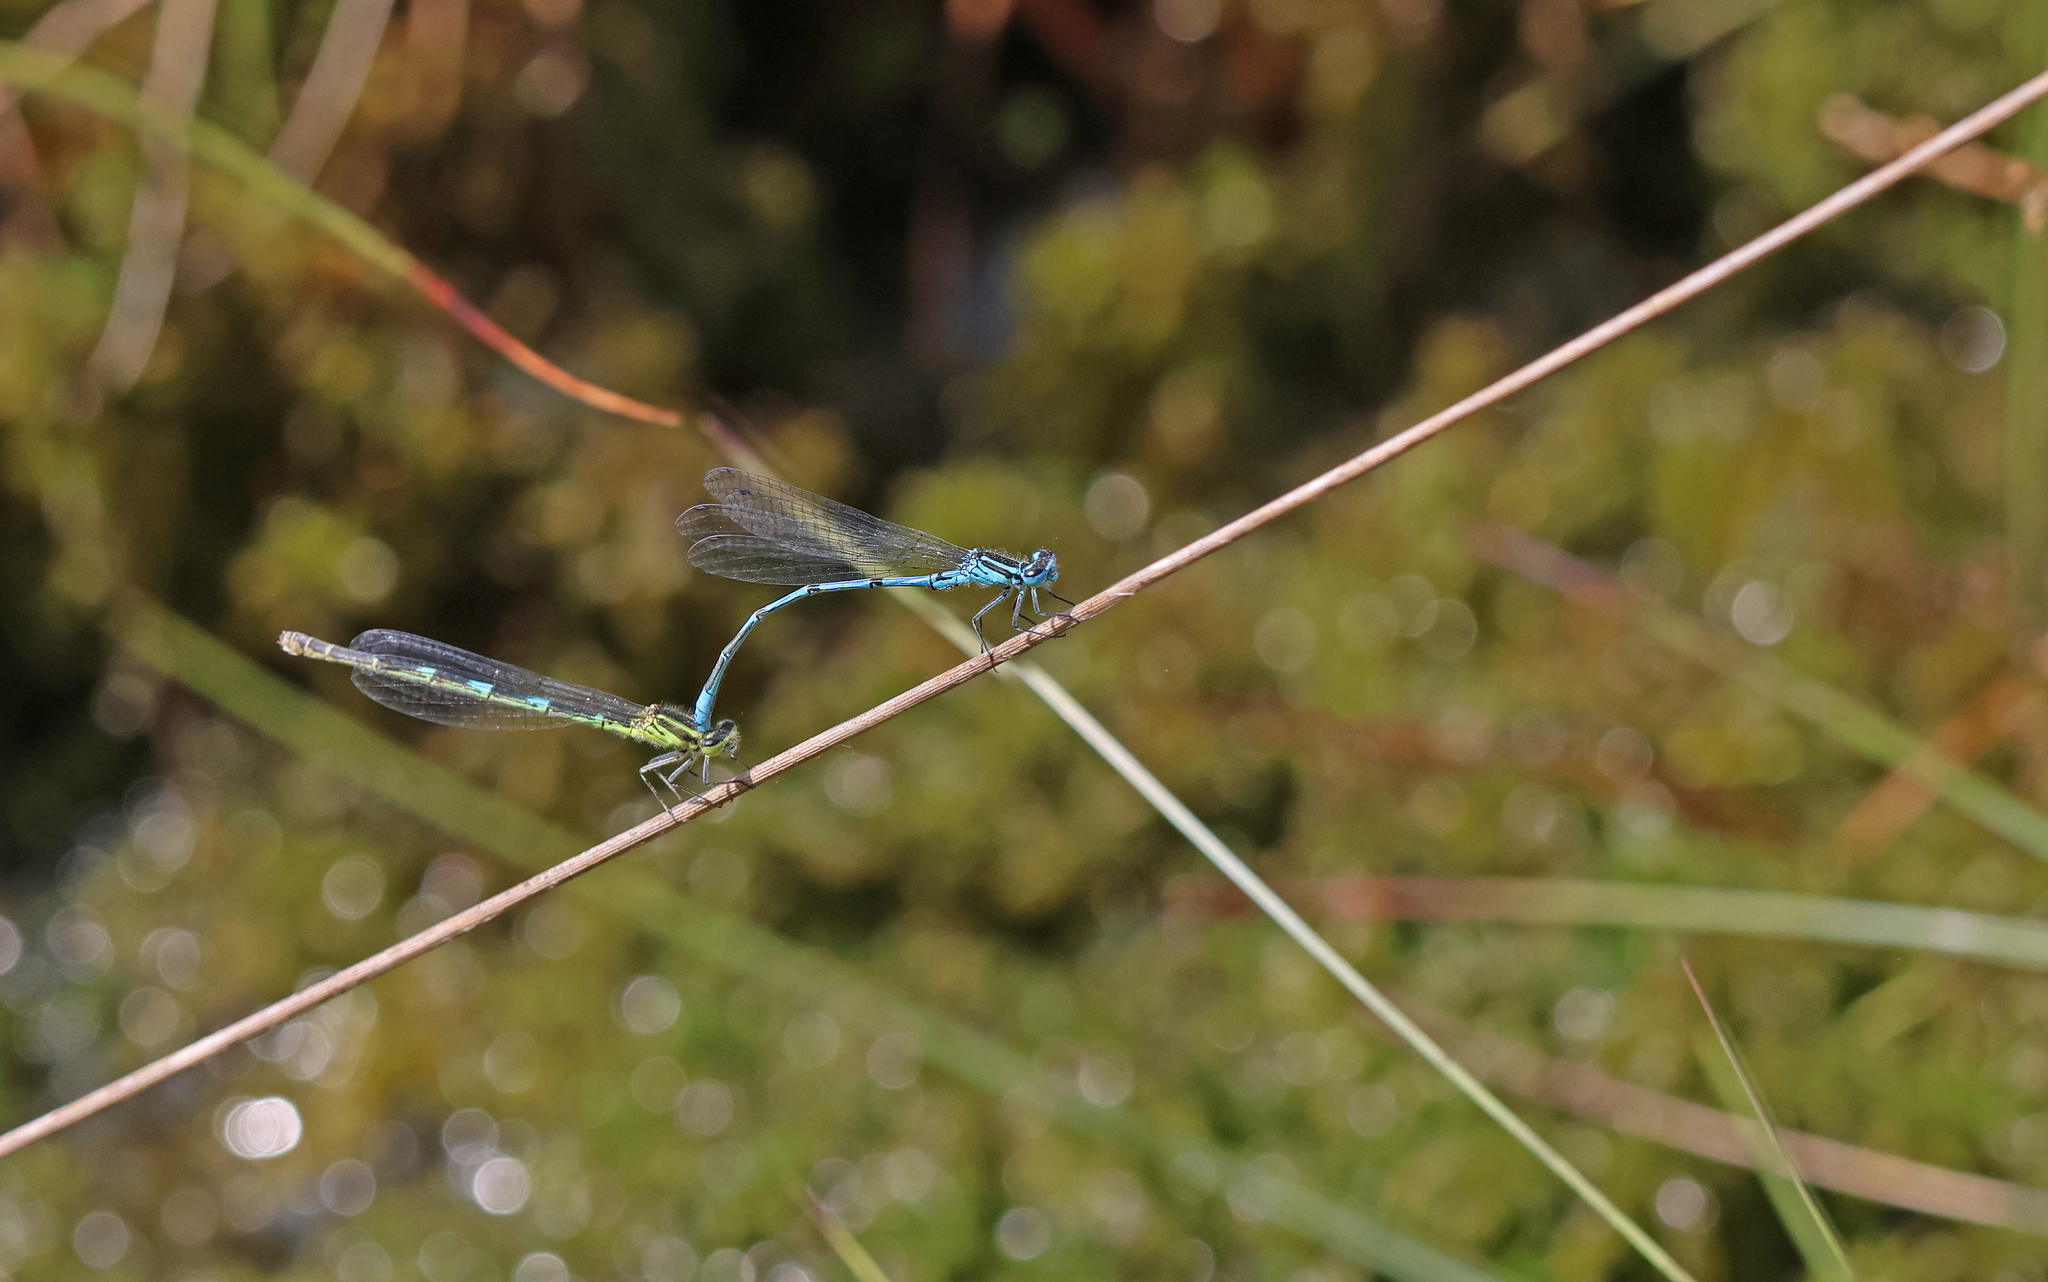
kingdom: Animalia
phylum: Arthropoda
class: Insecta
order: Odonata
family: Coenagrionidae
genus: Coenagrion
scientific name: Coenagrion puella
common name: Azure damselfly
